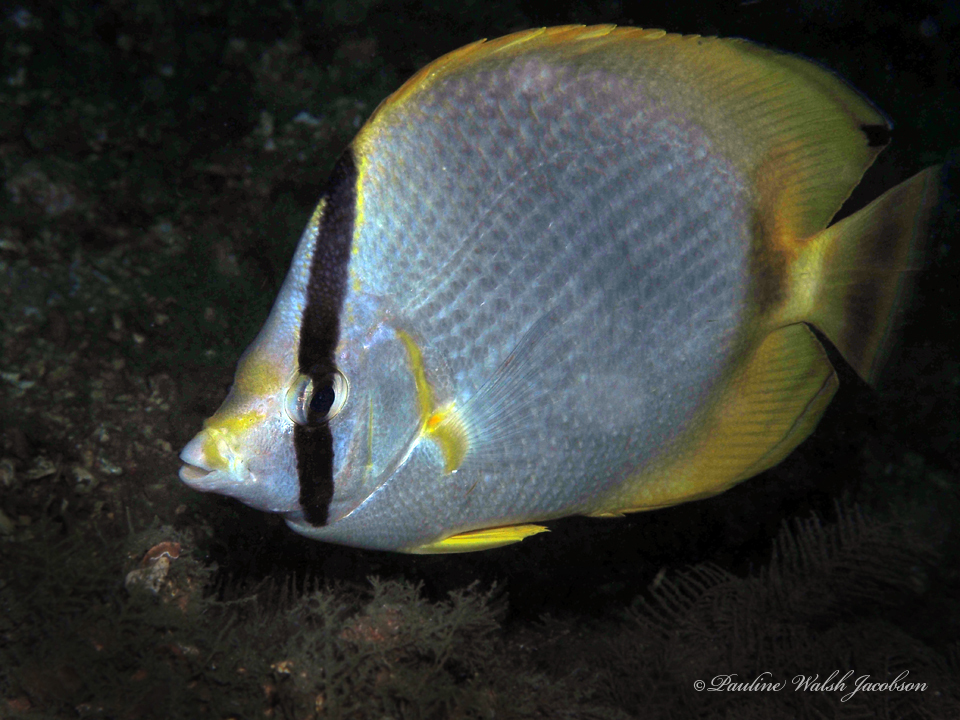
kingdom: Animalia
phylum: Chordata
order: Perciformes
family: Chaetodontidae
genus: Chaetodon
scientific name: Chaetodon ocellatus
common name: Spotfin butterflyfish
